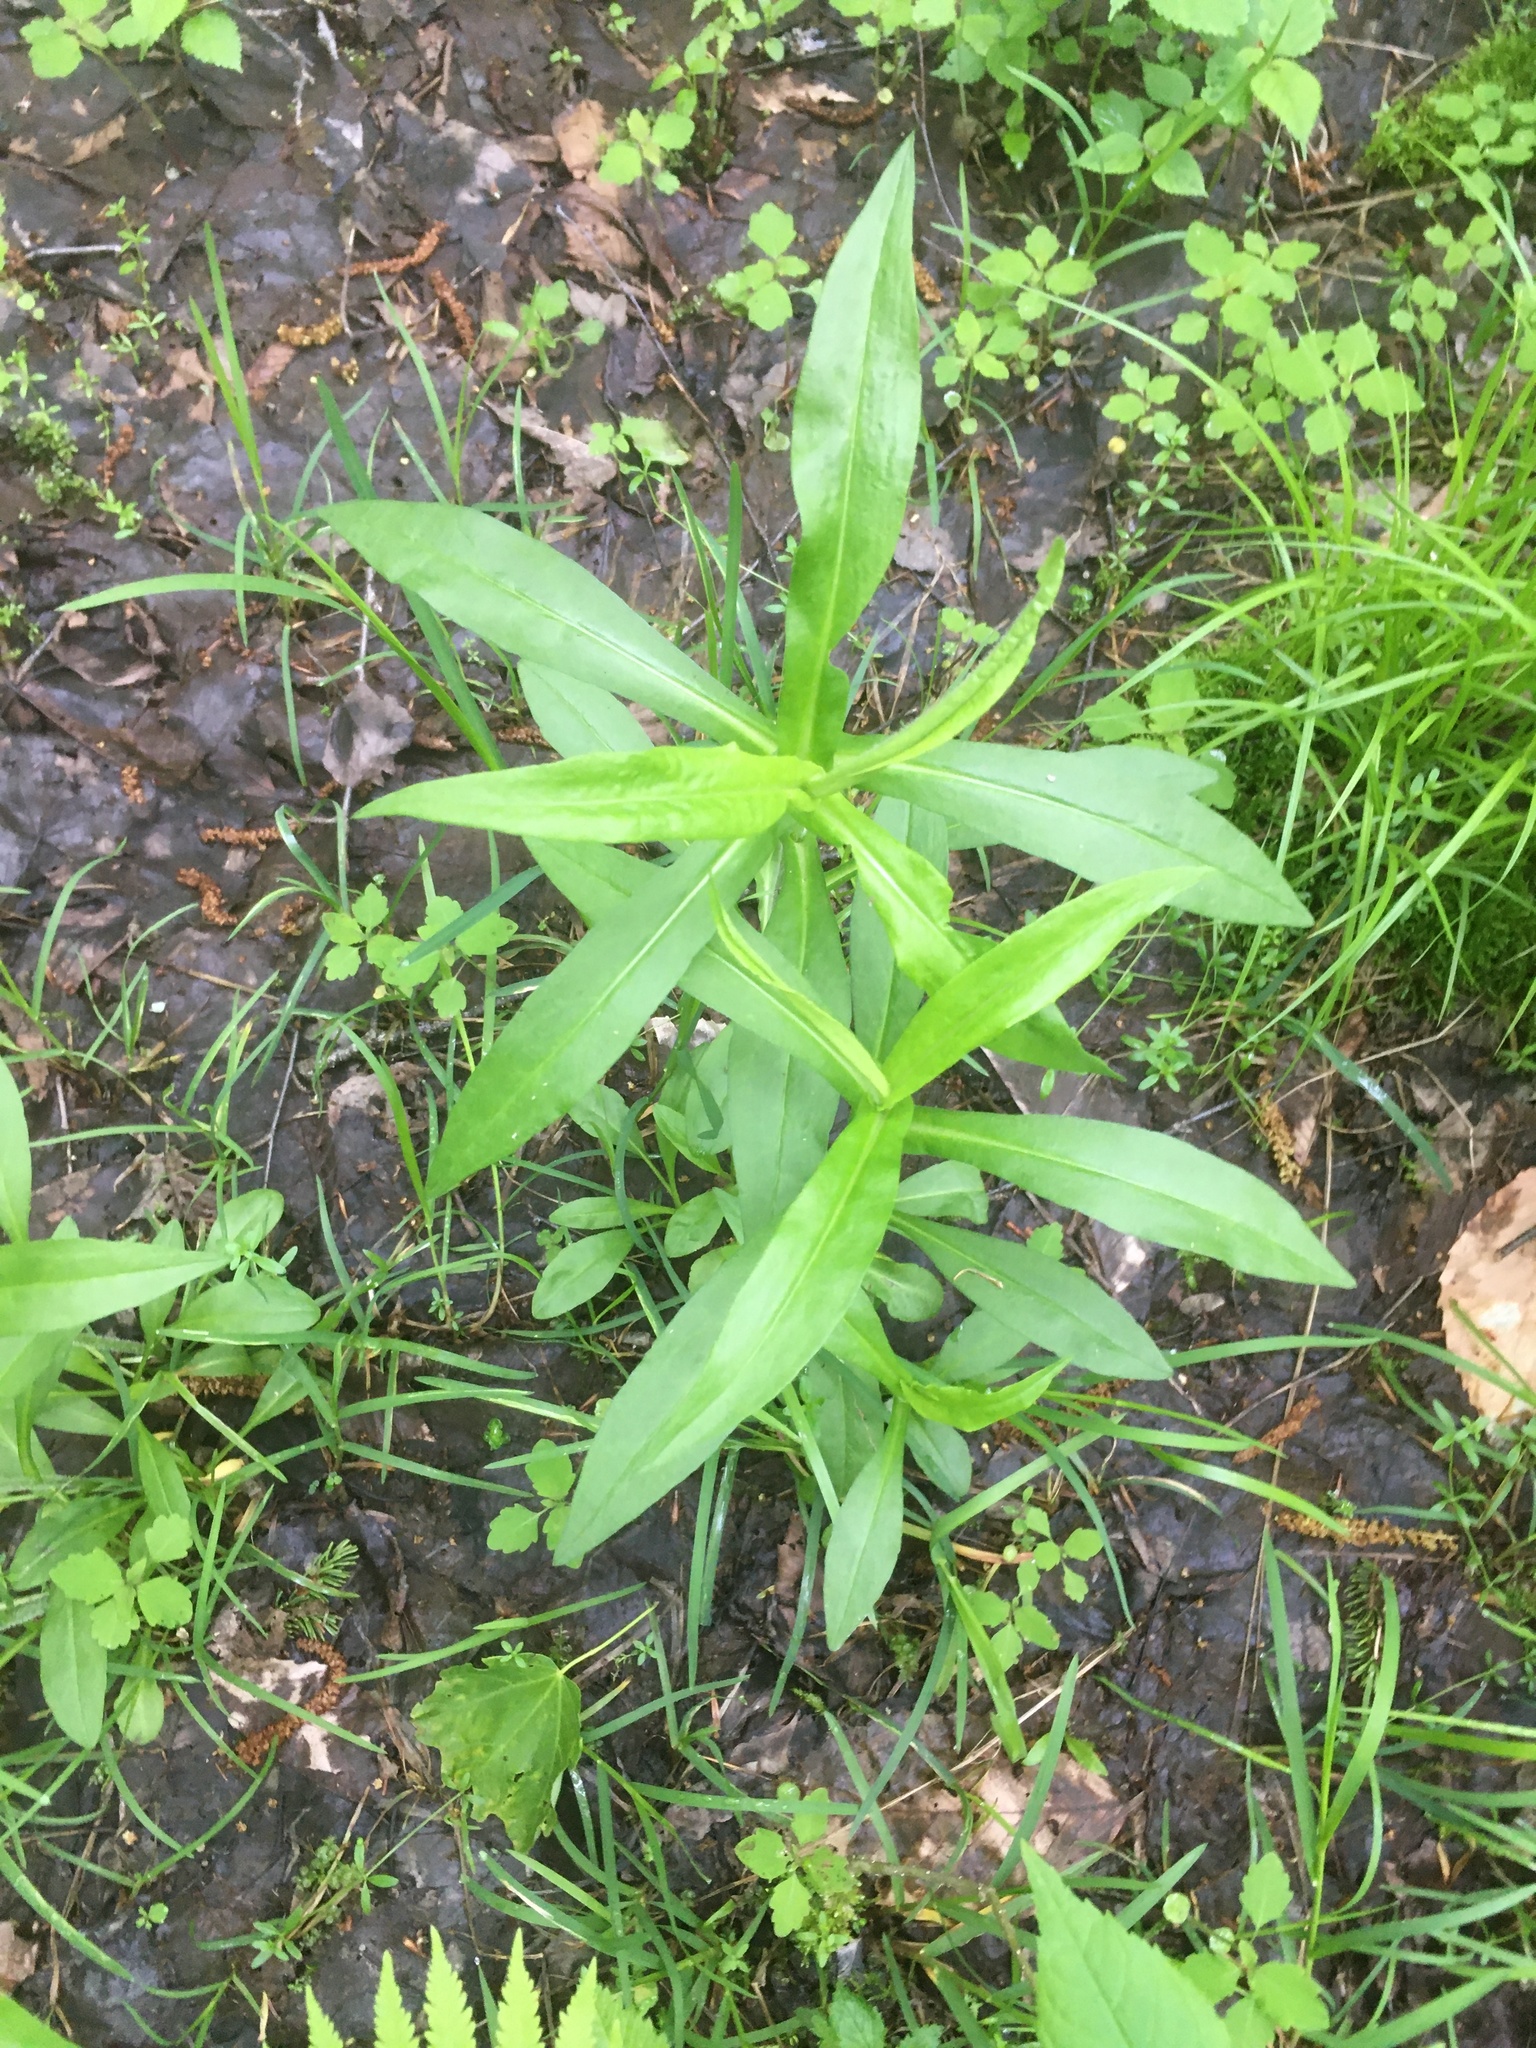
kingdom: Plantae
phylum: Tracheophyta
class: Magnoliopsida
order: Asterales
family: Asteraceae
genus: Symphyotrichum
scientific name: Symphyotrichum puniceum
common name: Bog aster
